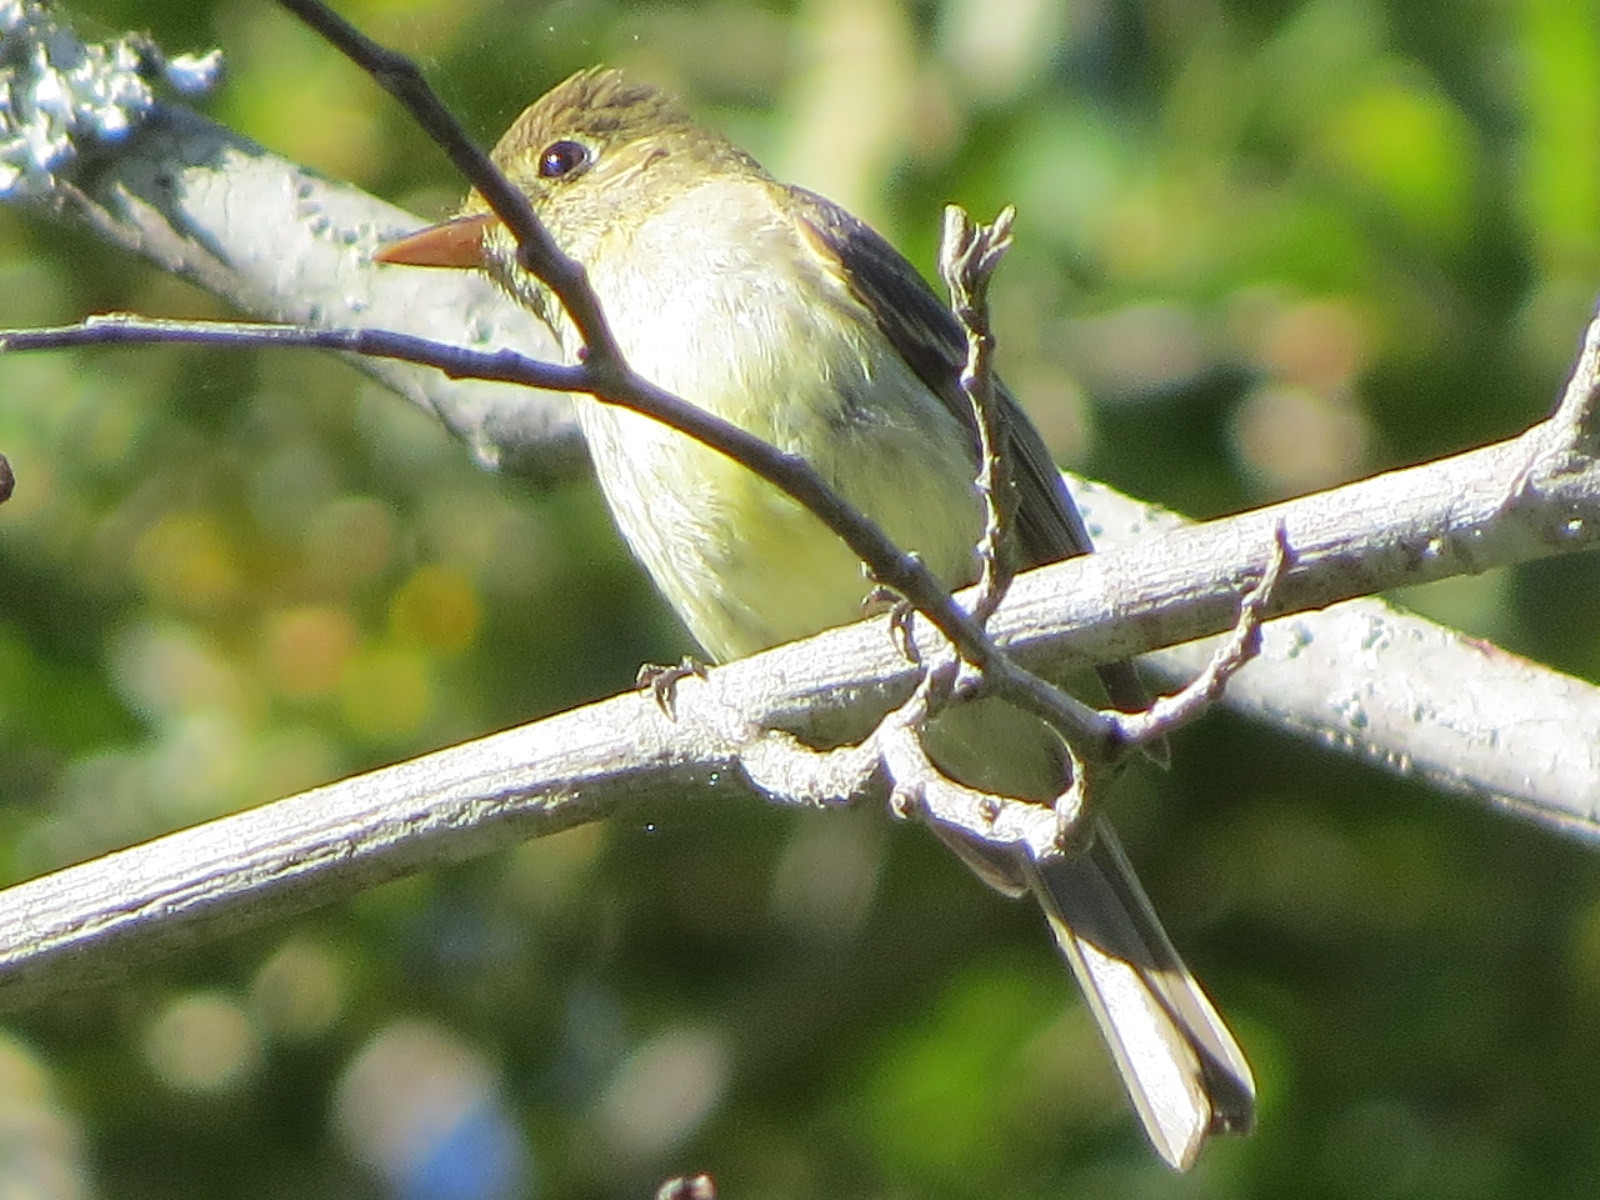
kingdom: Animalia
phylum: Chordata
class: Aves
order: Passeriformes
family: Tyrannidae
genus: Empidonax
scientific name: Empidonax difficilis
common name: Pacific-slope flycatcher
